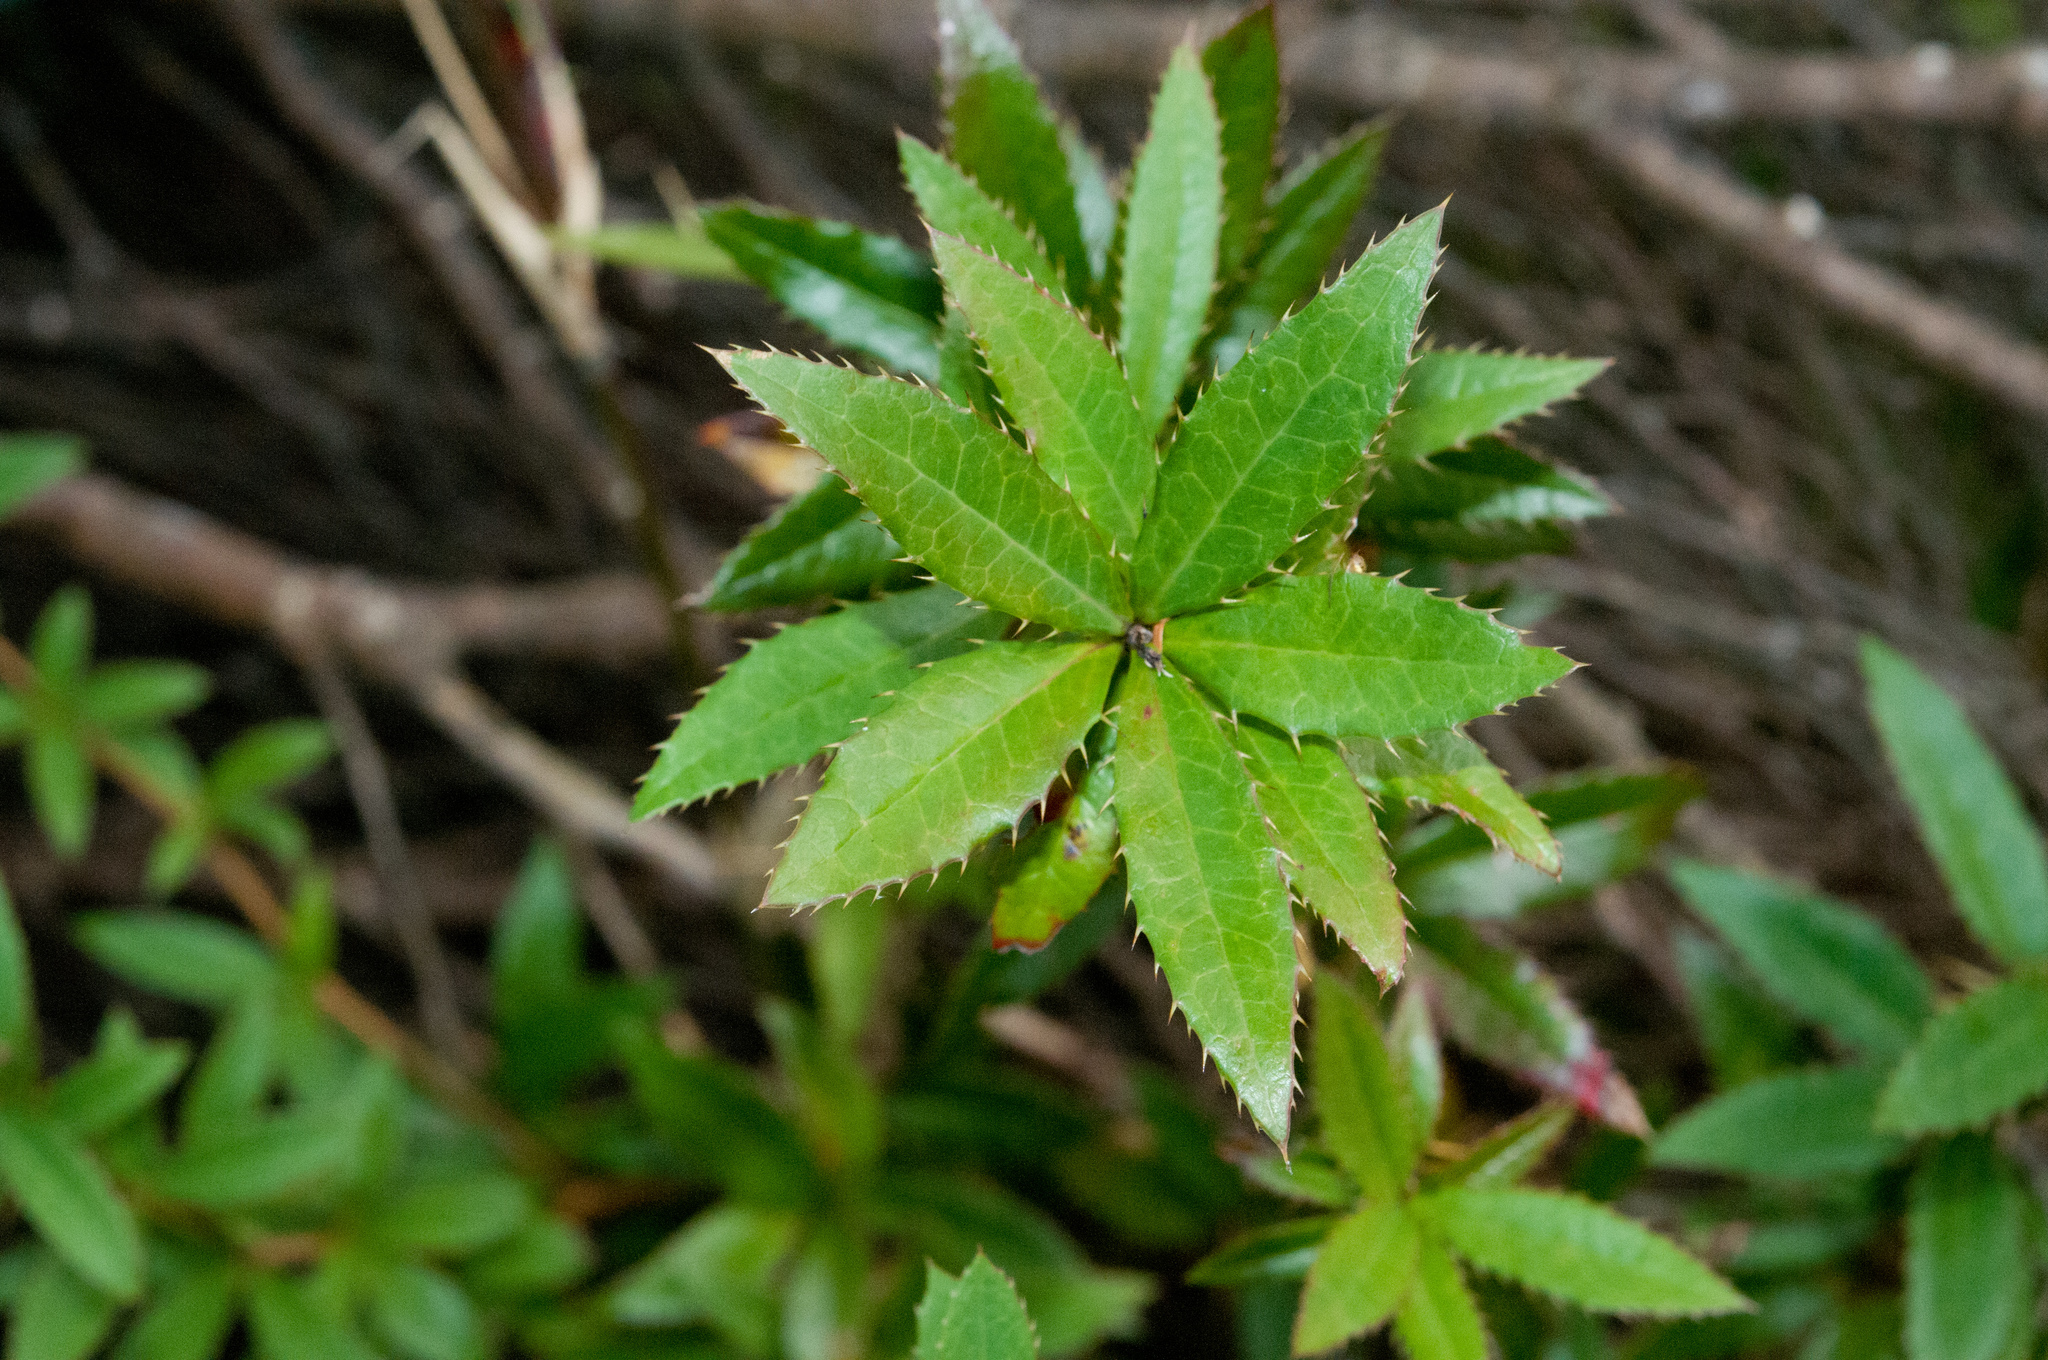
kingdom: Plantae
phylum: Tracheophyta
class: Magnoliopsida
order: Ranunculales
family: Berberidaceae
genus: Berberis
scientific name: Berberis pengii
